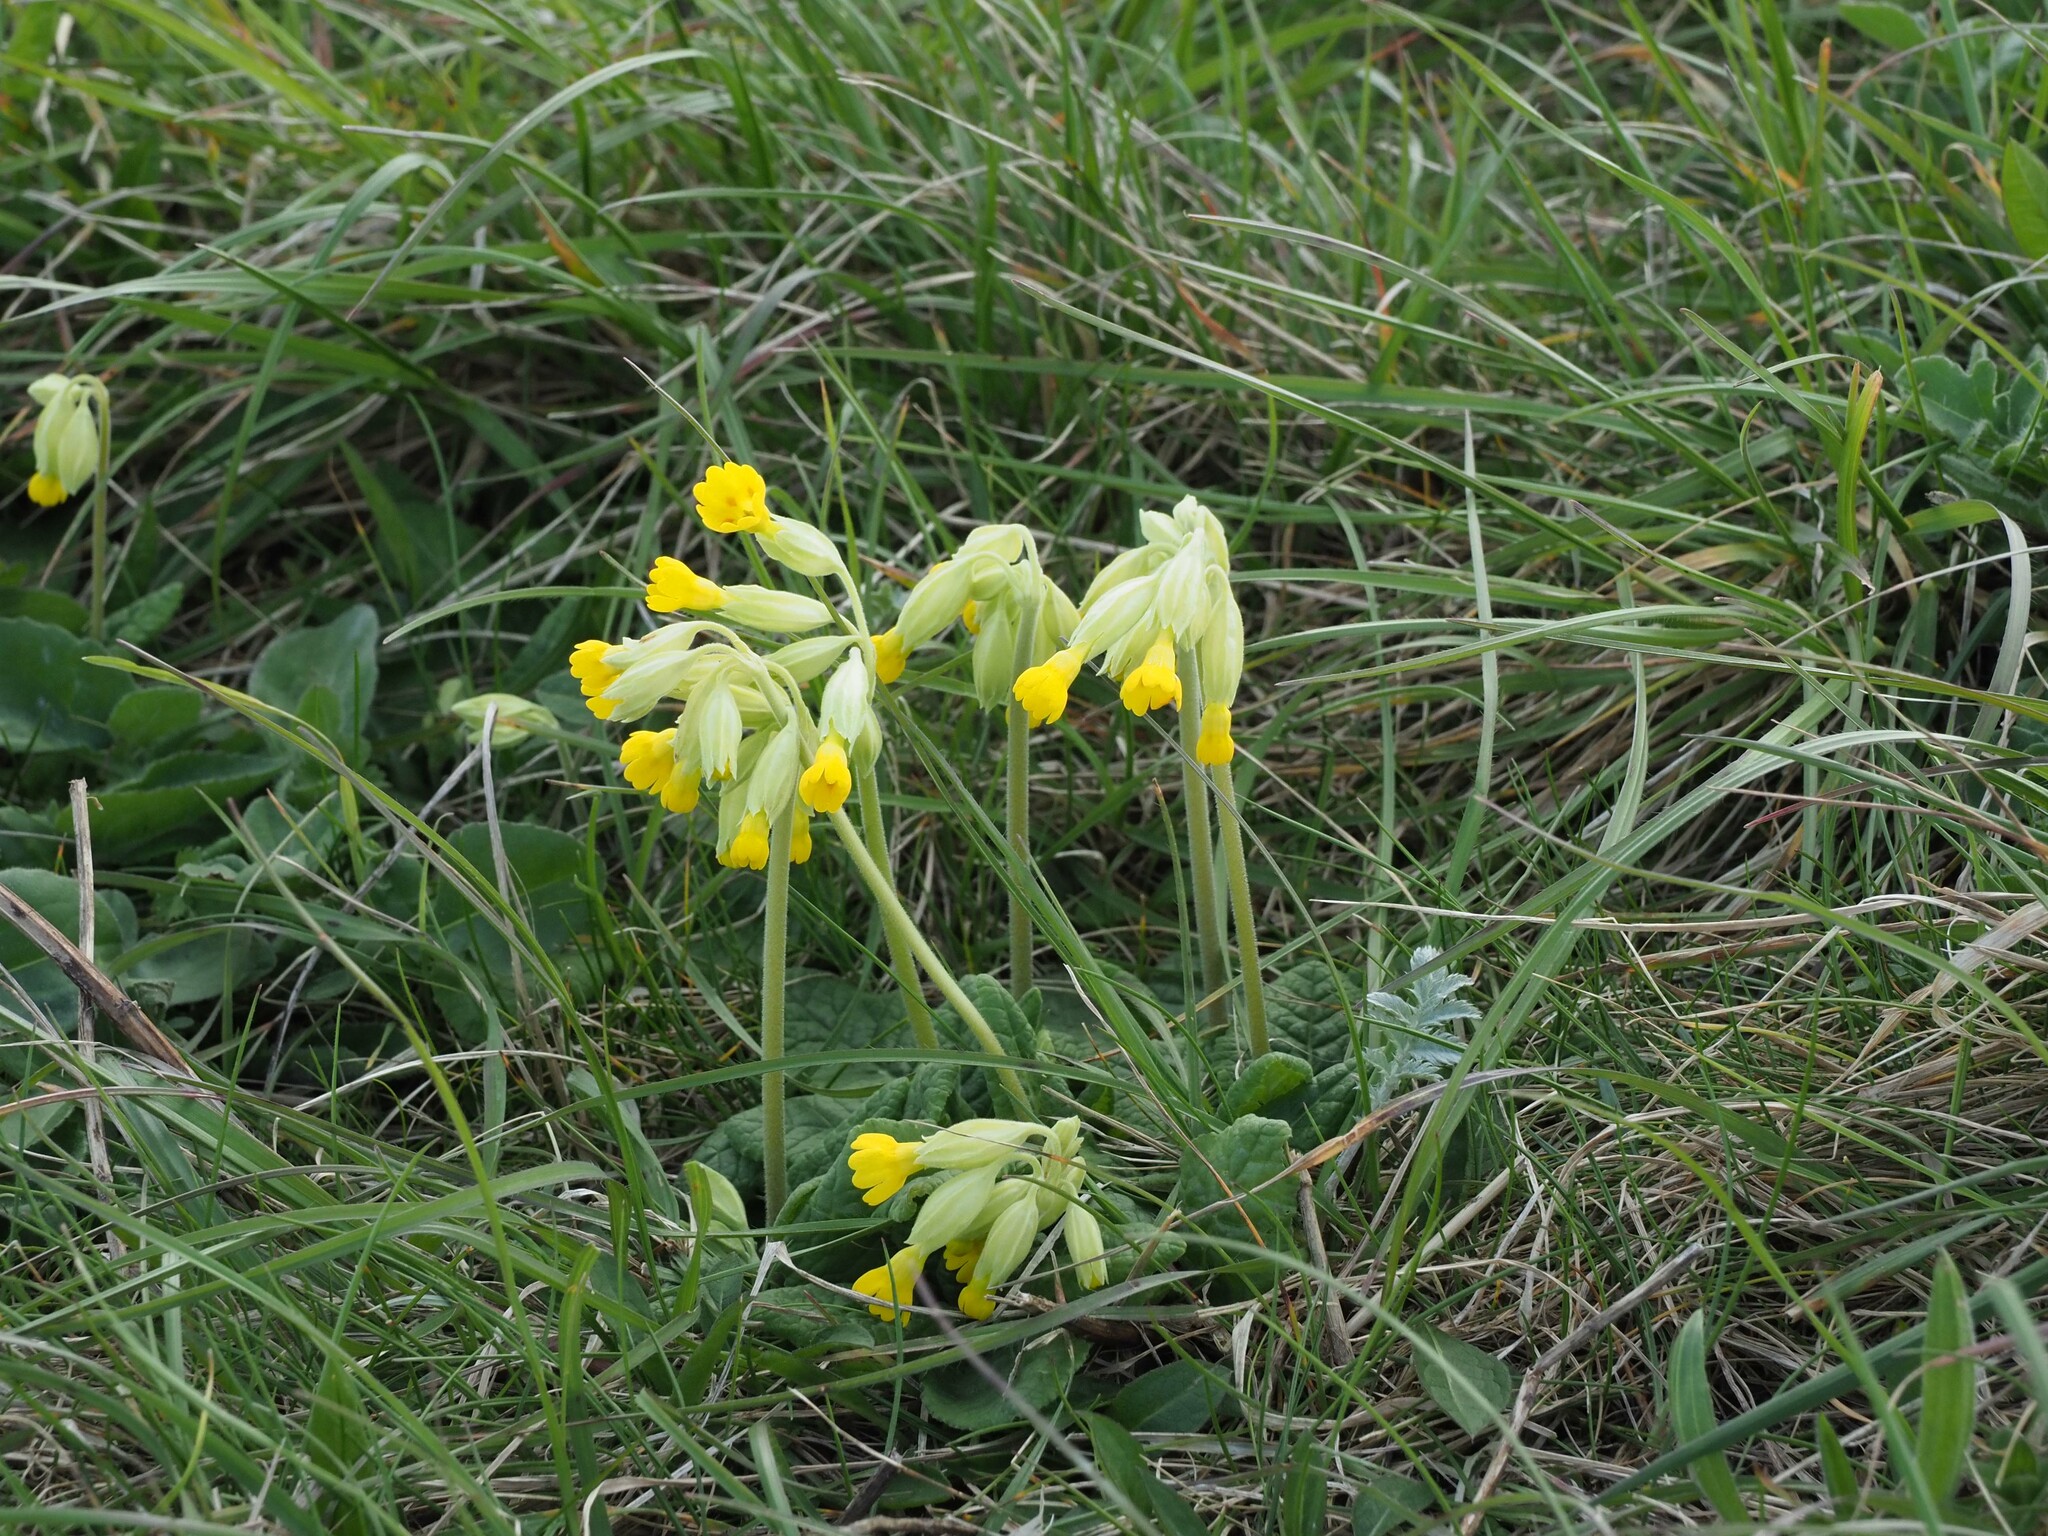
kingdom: Plantae
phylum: Tracheophyta
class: Magnoliopsida
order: Ericales
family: Primulaceae
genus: Primula
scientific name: Primula veris
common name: Cowslip
